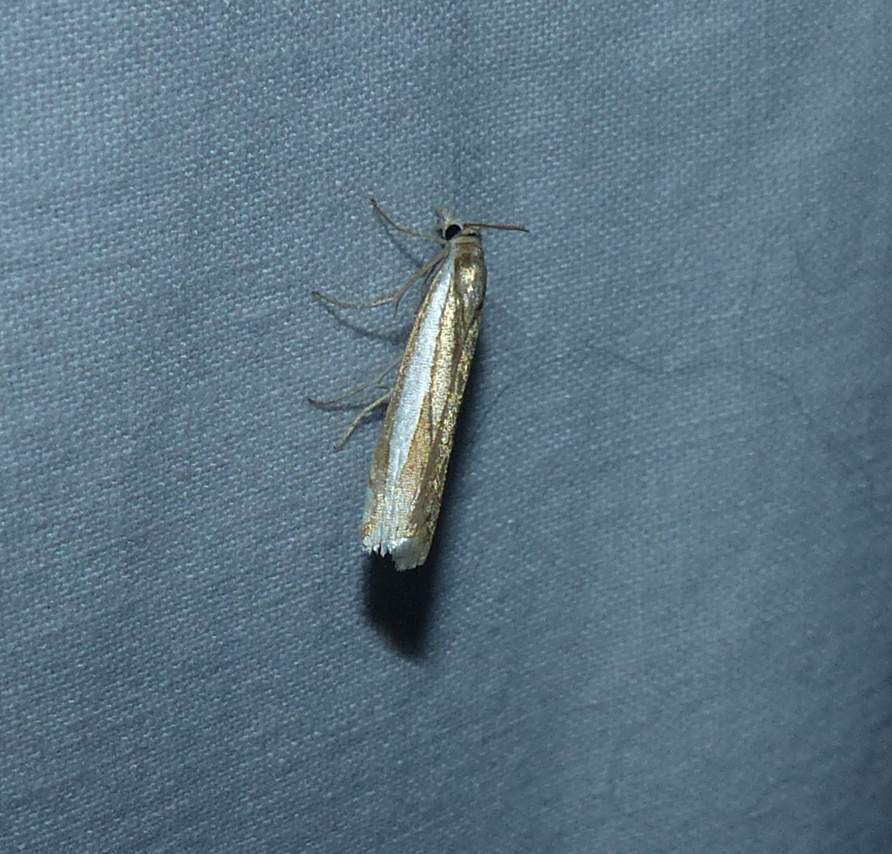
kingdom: Animalia
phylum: Arthropoda
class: Insecta
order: Lepidoptera
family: Crambidae
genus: Crambus
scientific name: Crambus praefectellus
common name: Common grass-veneer
